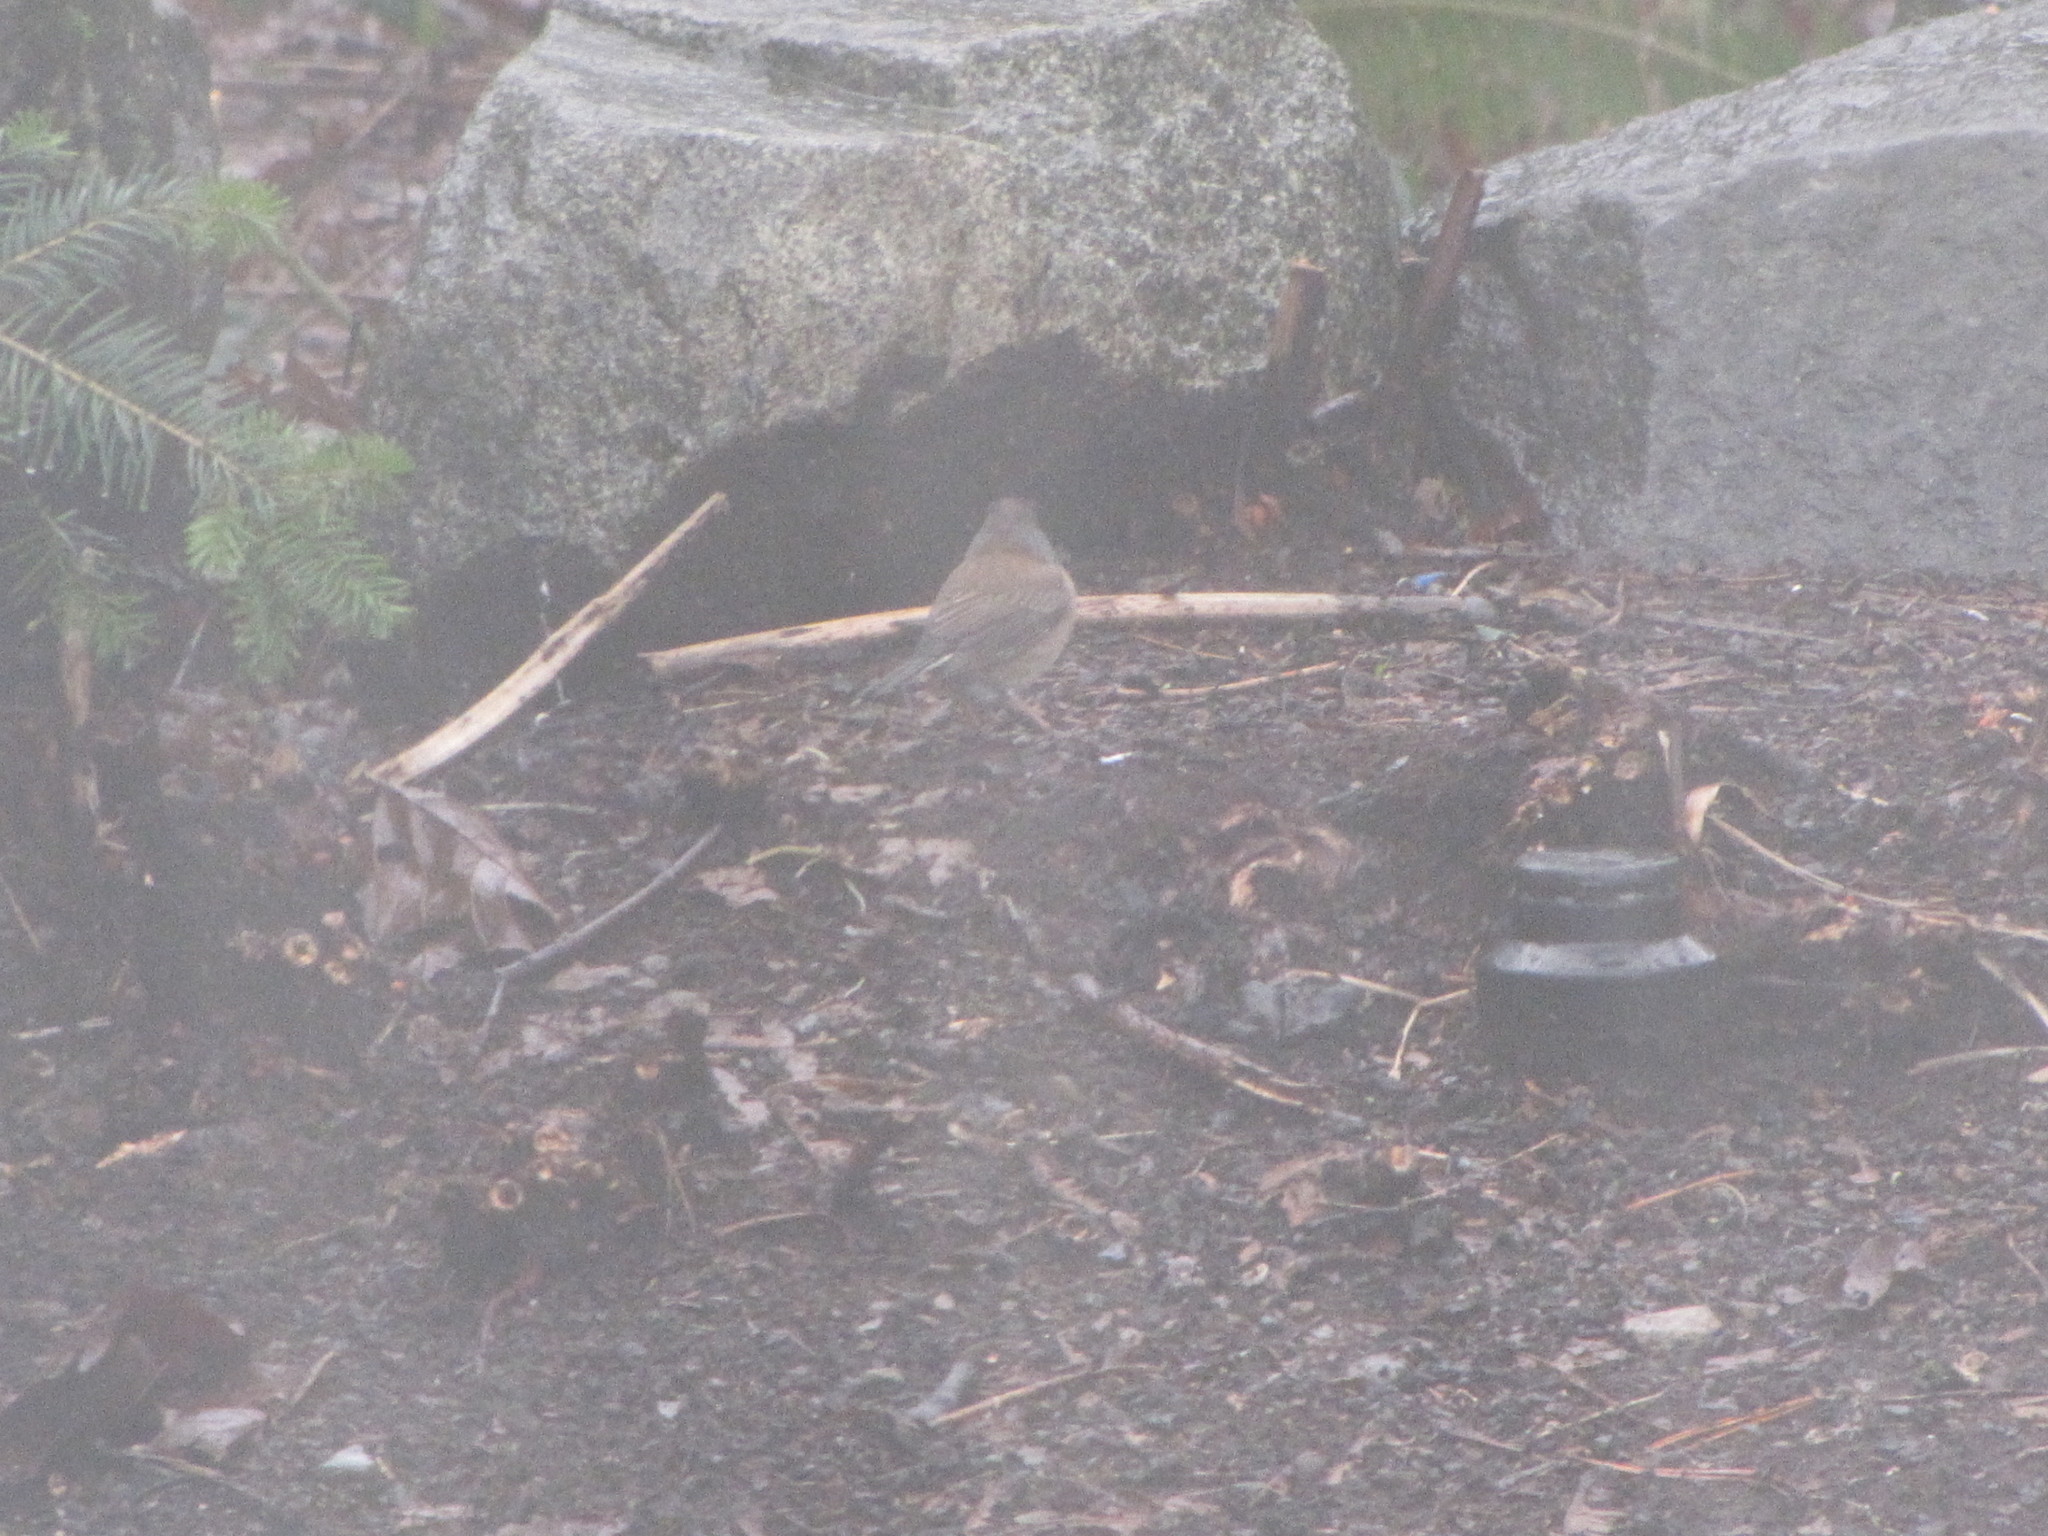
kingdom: Animalia
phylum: Chordata
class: Aves
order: Passeriformes
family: Passerellidae
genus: Junco
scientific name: Junco hyemalis
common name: Dark-eyed junco
